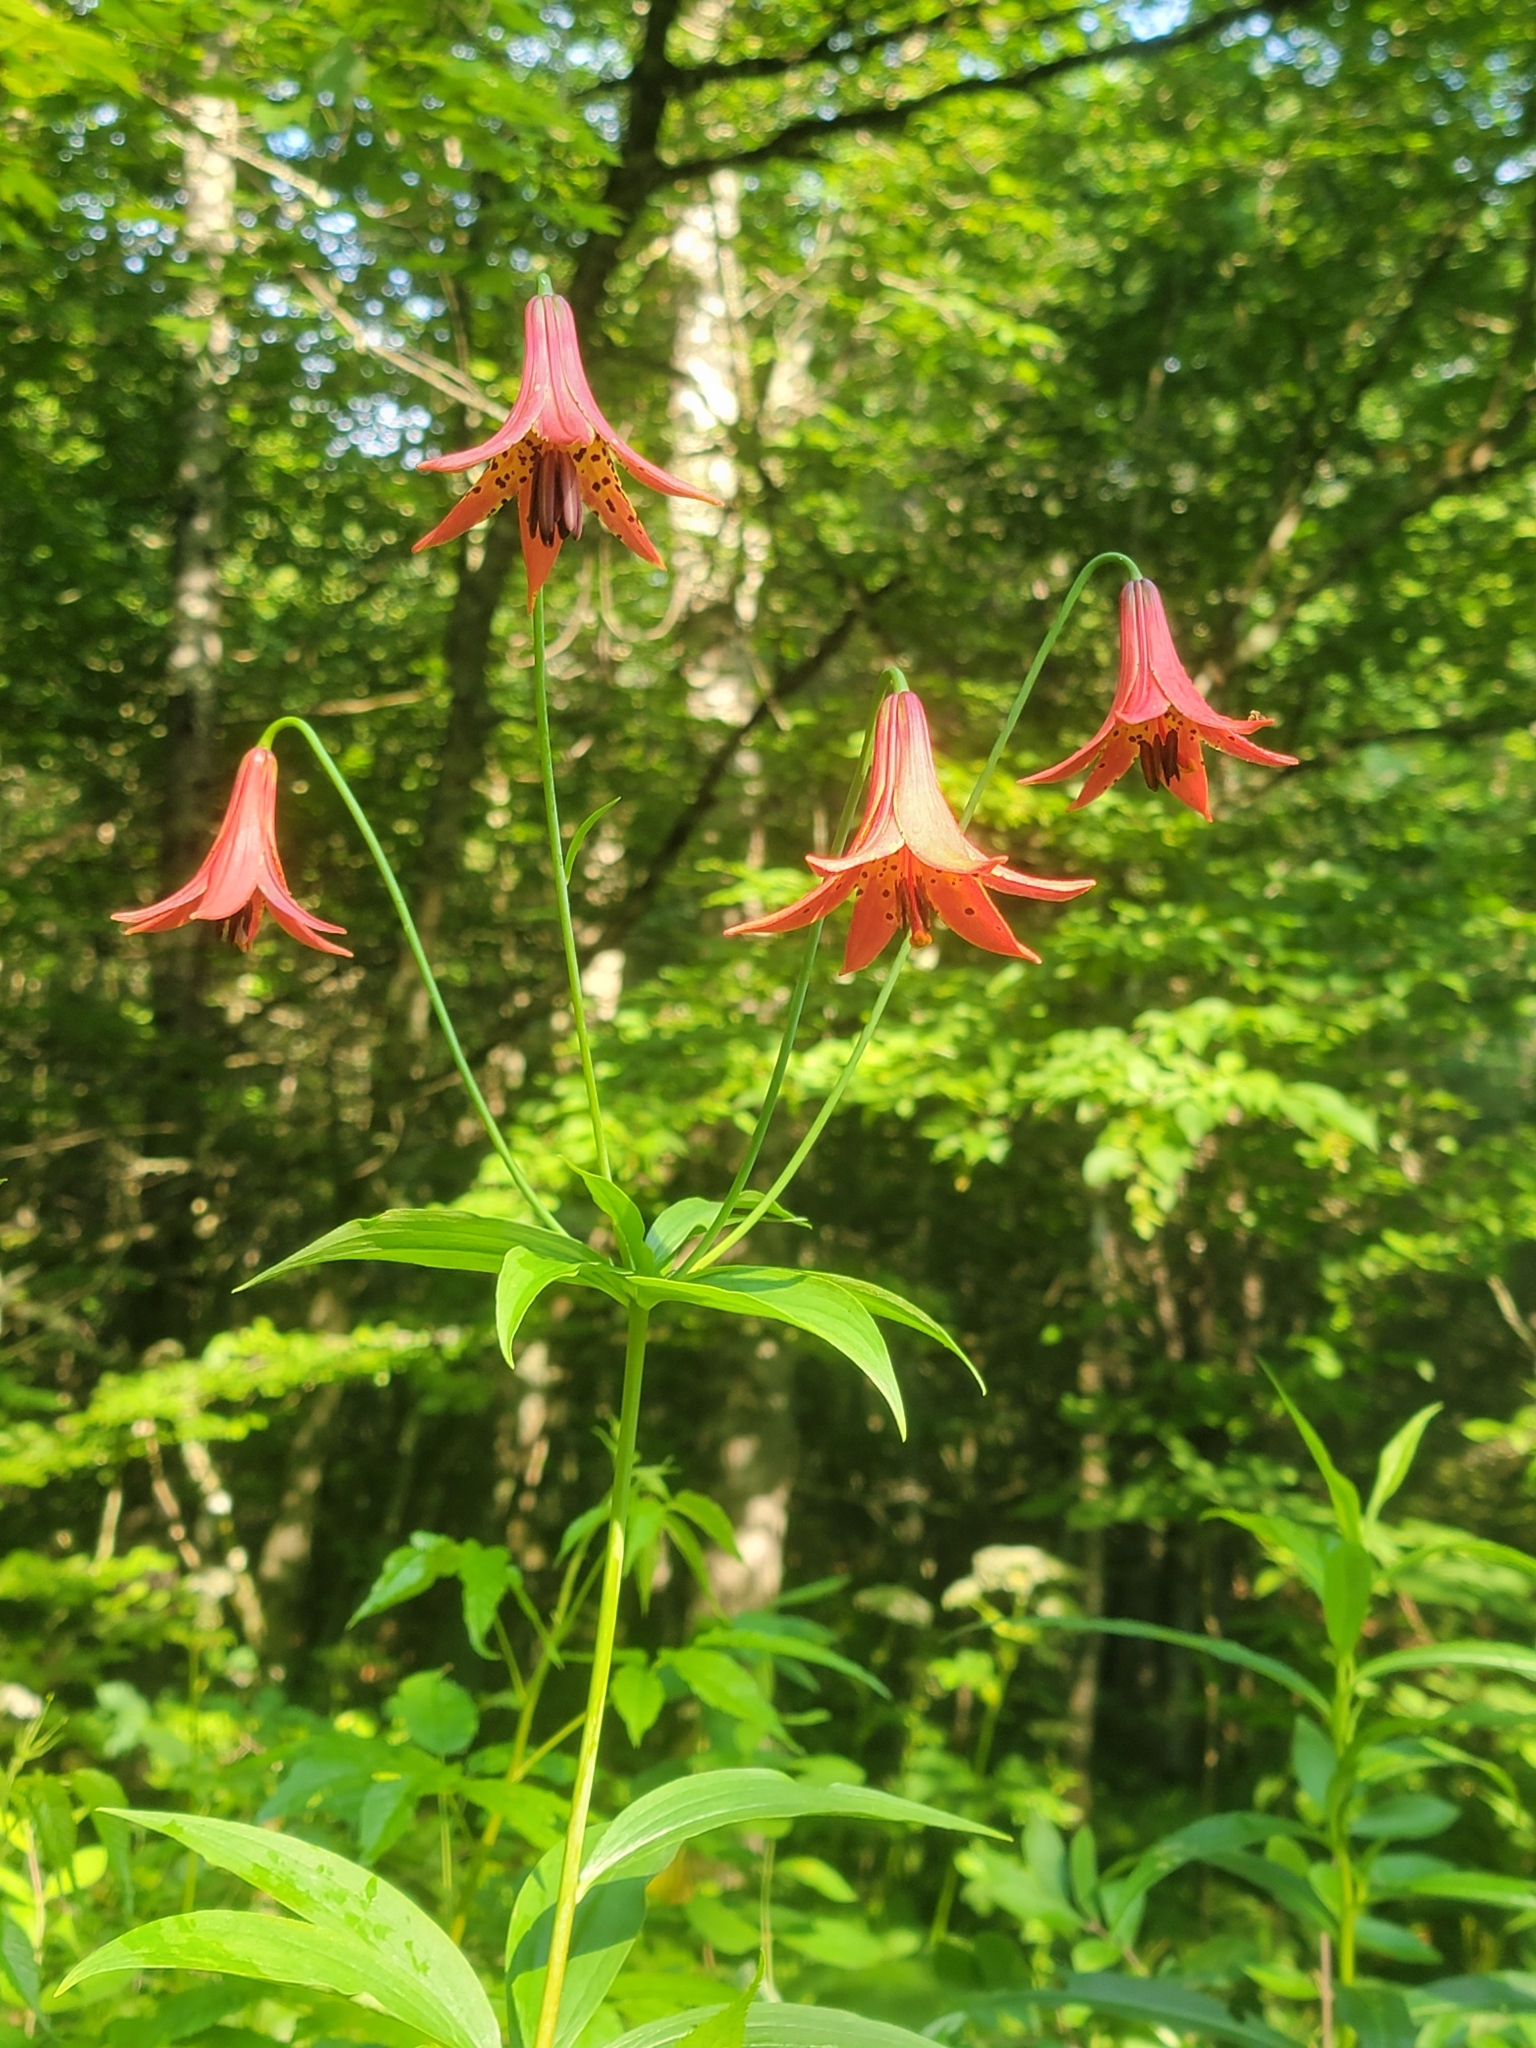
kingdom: Plantae
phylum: Tracheophyta
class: Liliopsida
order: Liliales
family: Liliaceae
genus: Lilium
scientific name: Lilium canadense
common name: Canada lily
